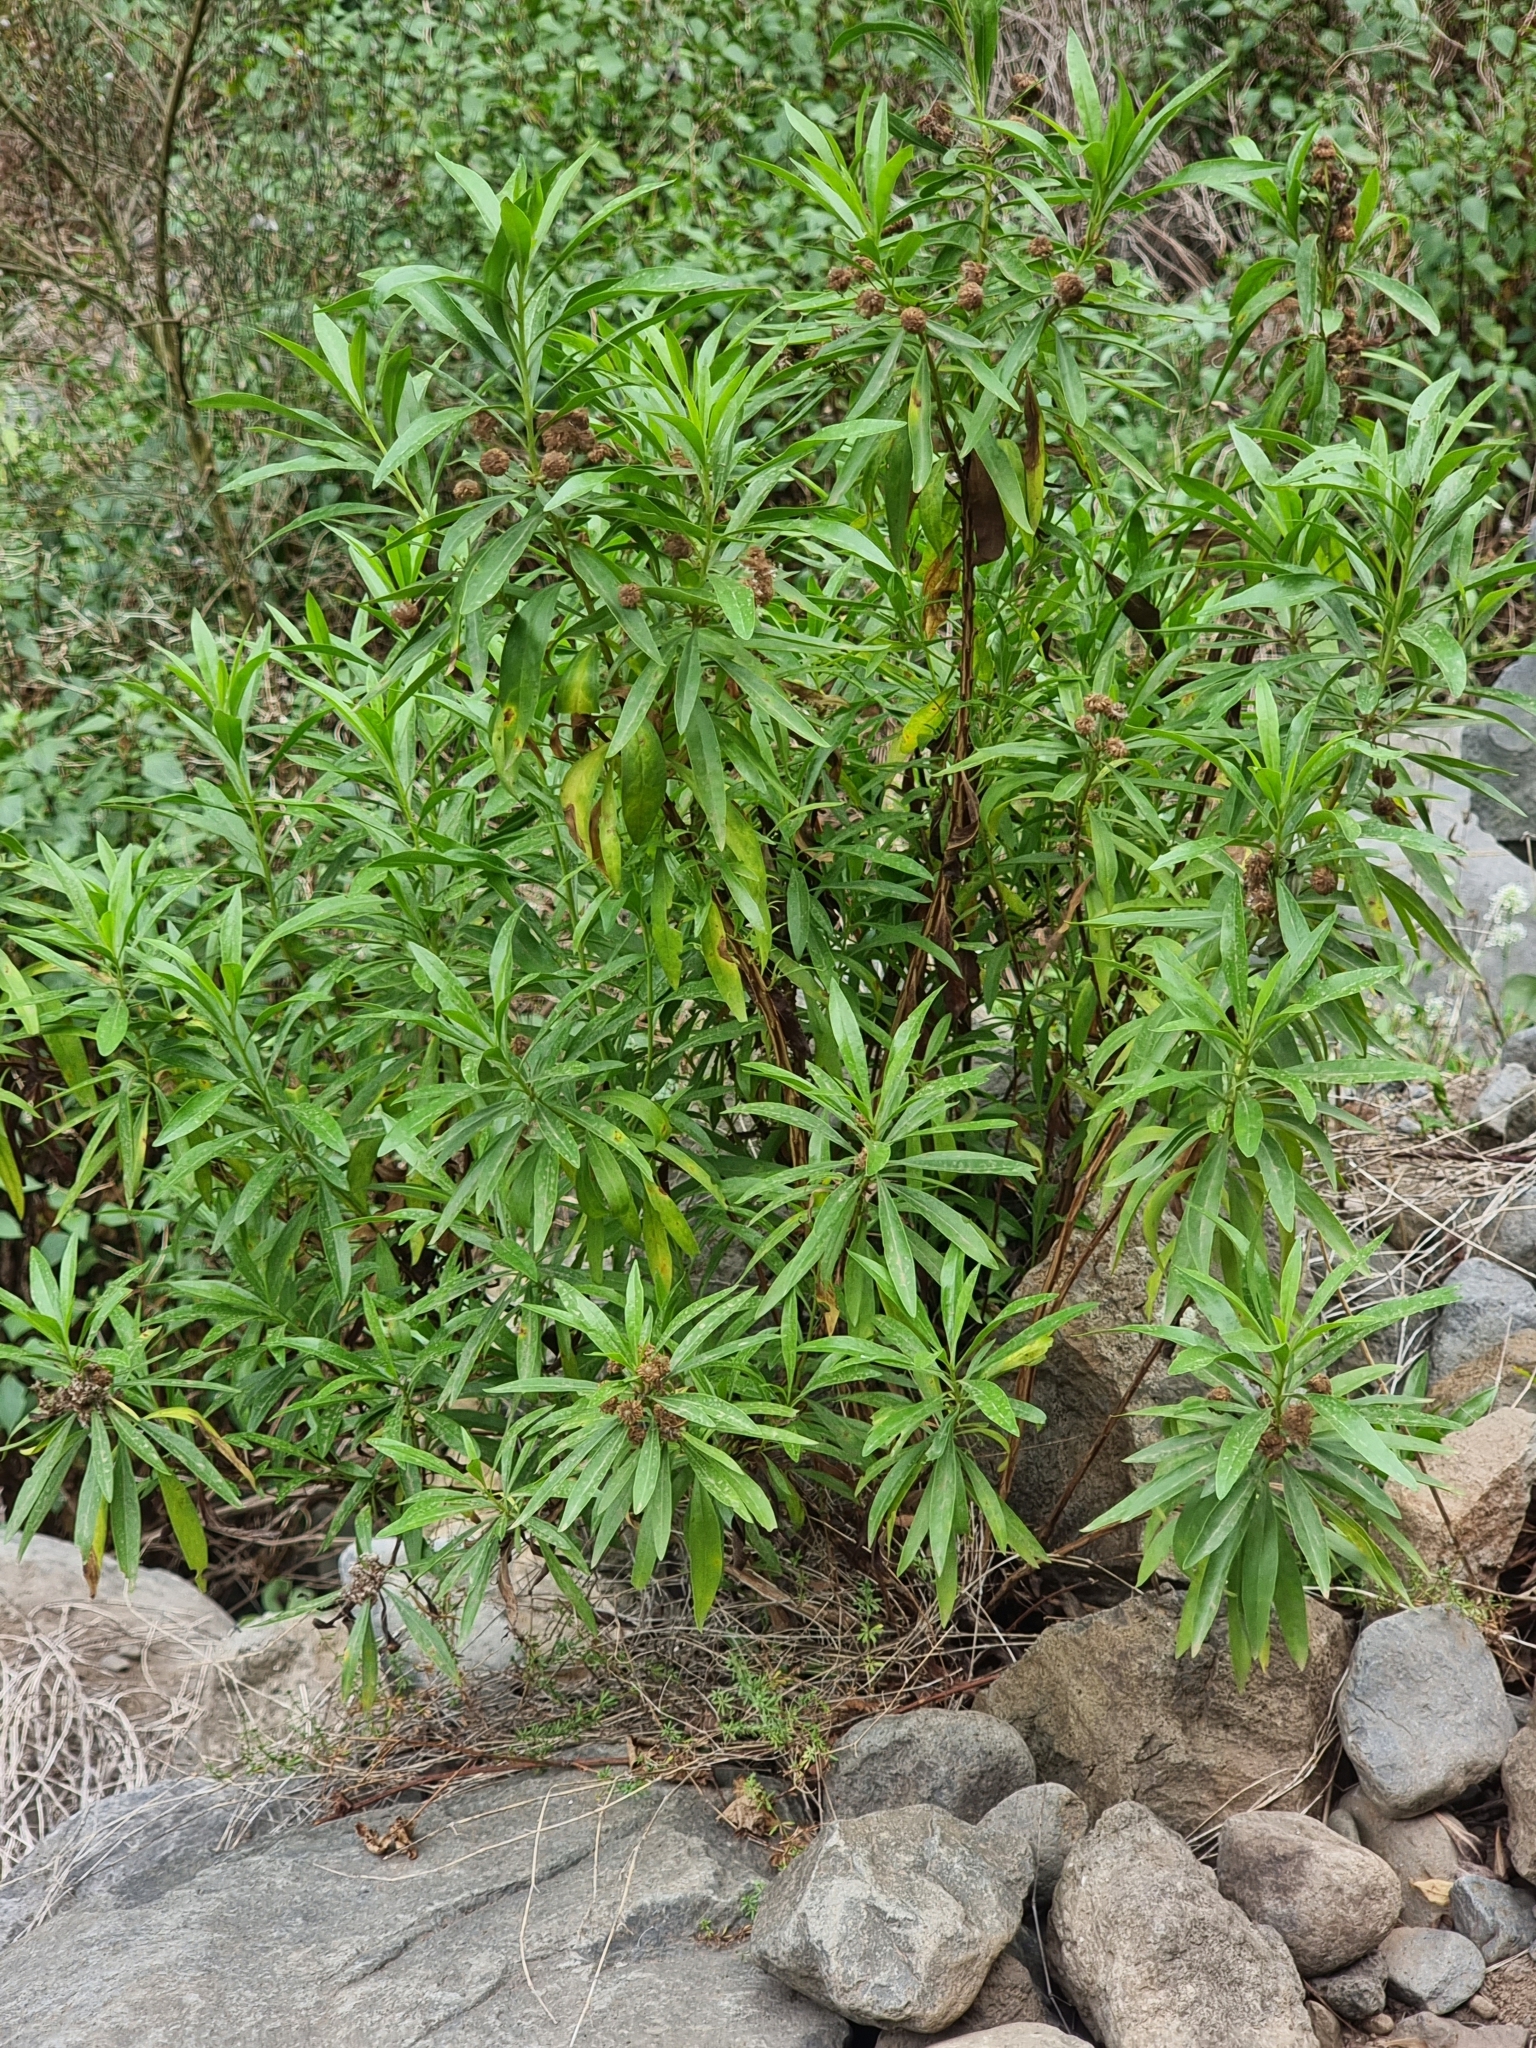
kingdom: Plantae
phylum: Tracheophyta
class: Magnoliopsida
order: Lamiales
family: Plantaginaceae
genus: Globularia
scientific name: Globularia salicina
